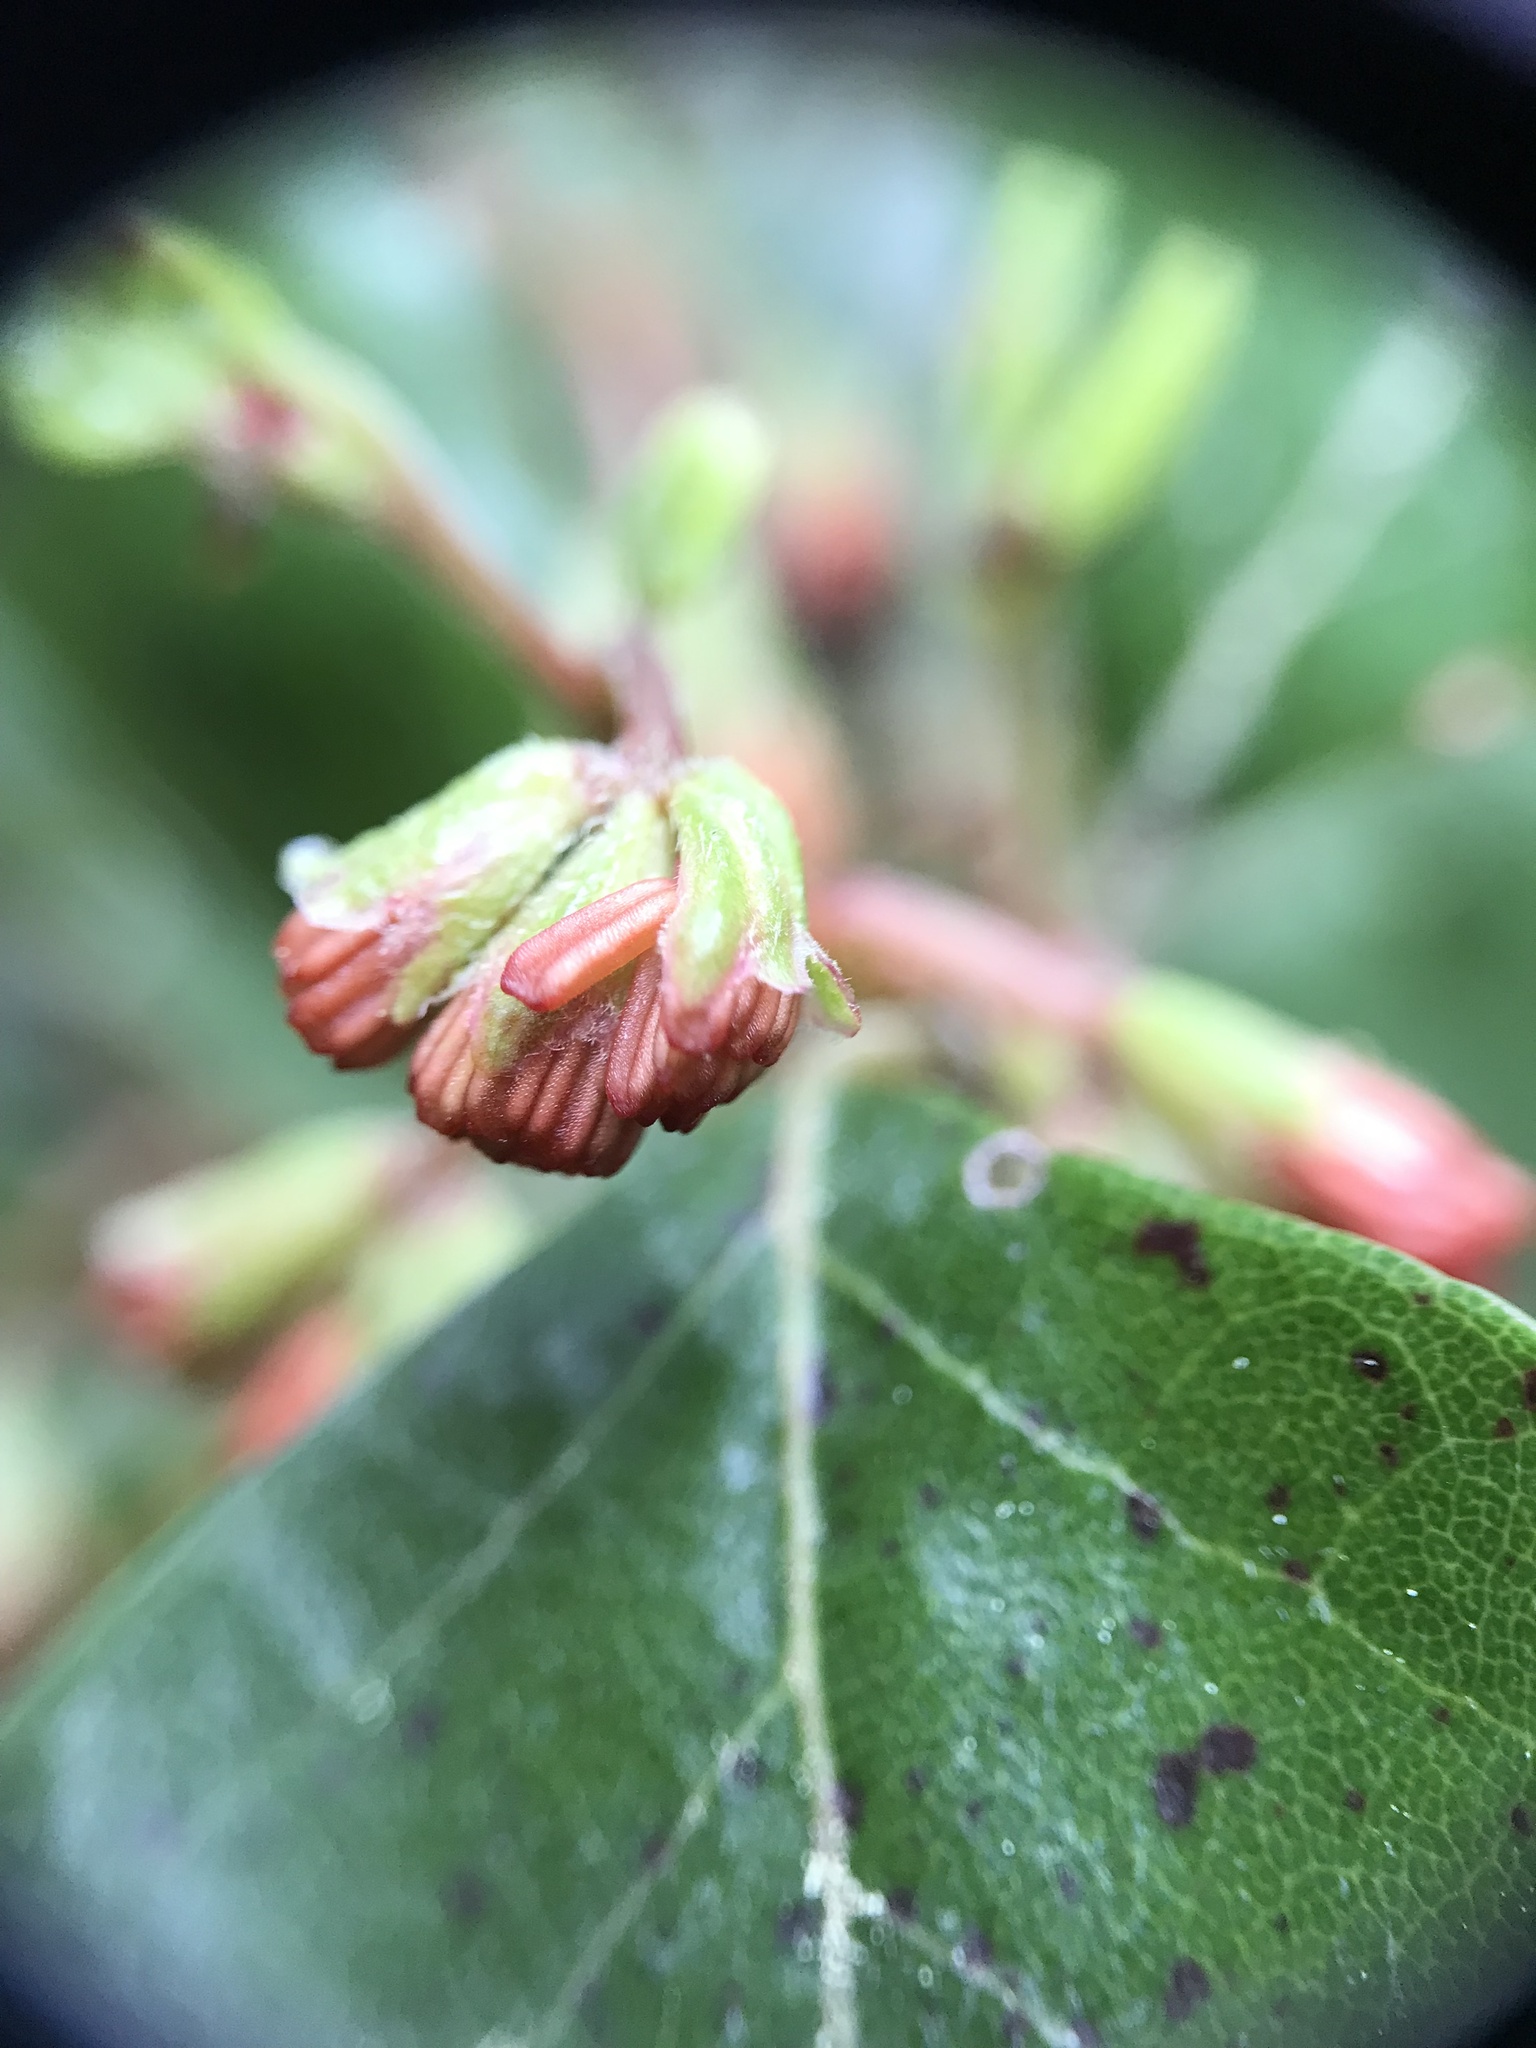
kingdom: Plantae
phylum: Tracheophyta
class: Magnoliopsida
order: Fagales
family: Nothofagaceae
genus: Nothofagus
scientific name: Nothofagus truncata
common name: Hard beech
